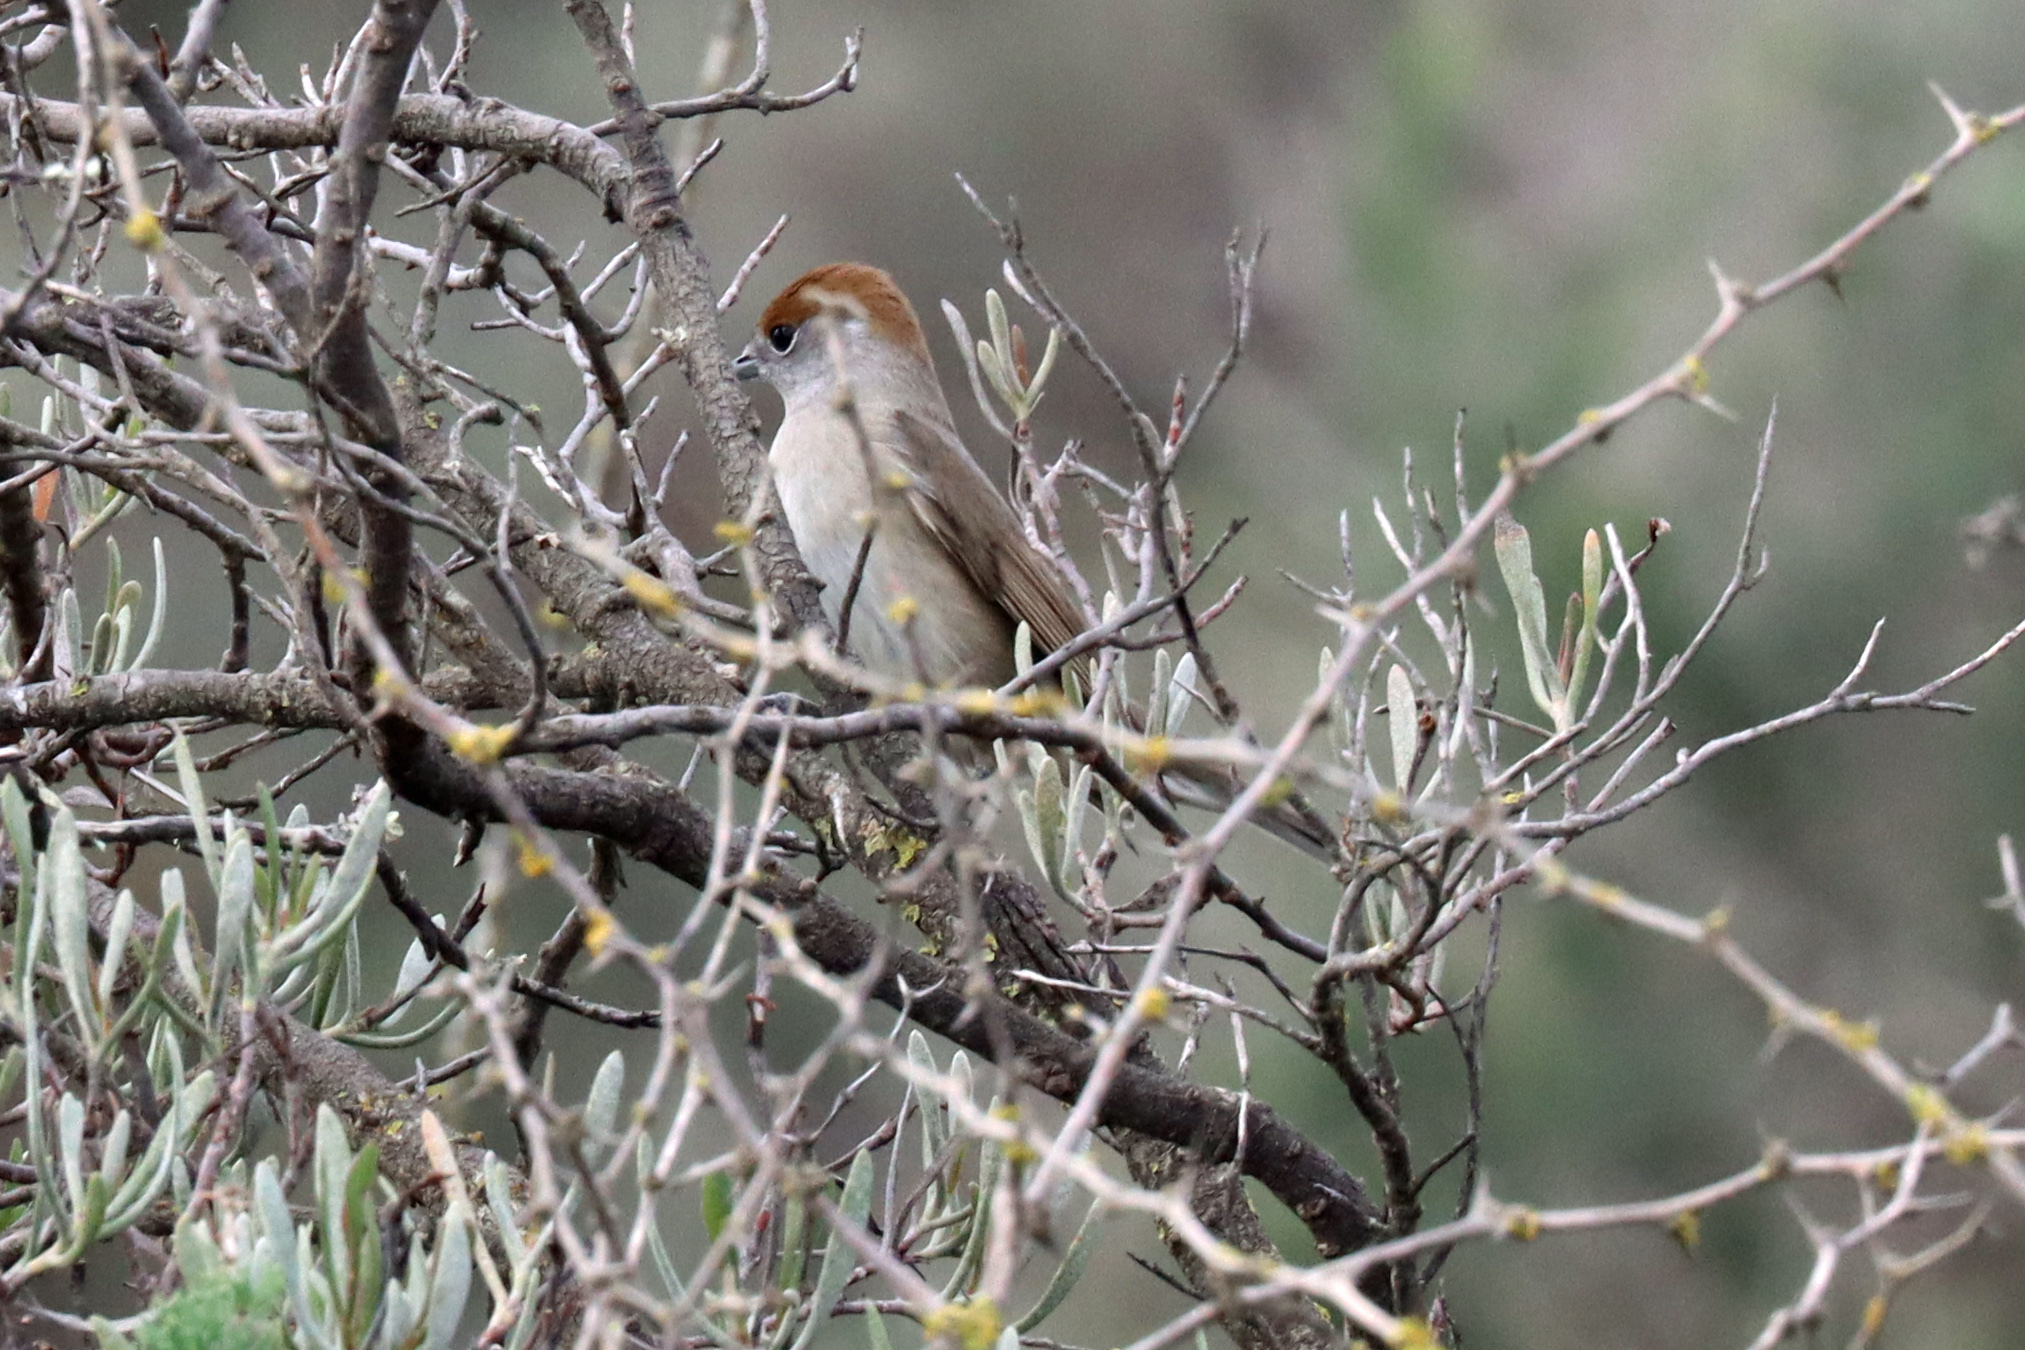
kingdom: Animalia
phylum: Chordata
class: Aves
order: Passeriformes
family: Sylviidae
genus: Sylvia
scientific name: Sylvia atricapilla
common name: Eurasian blackcap
